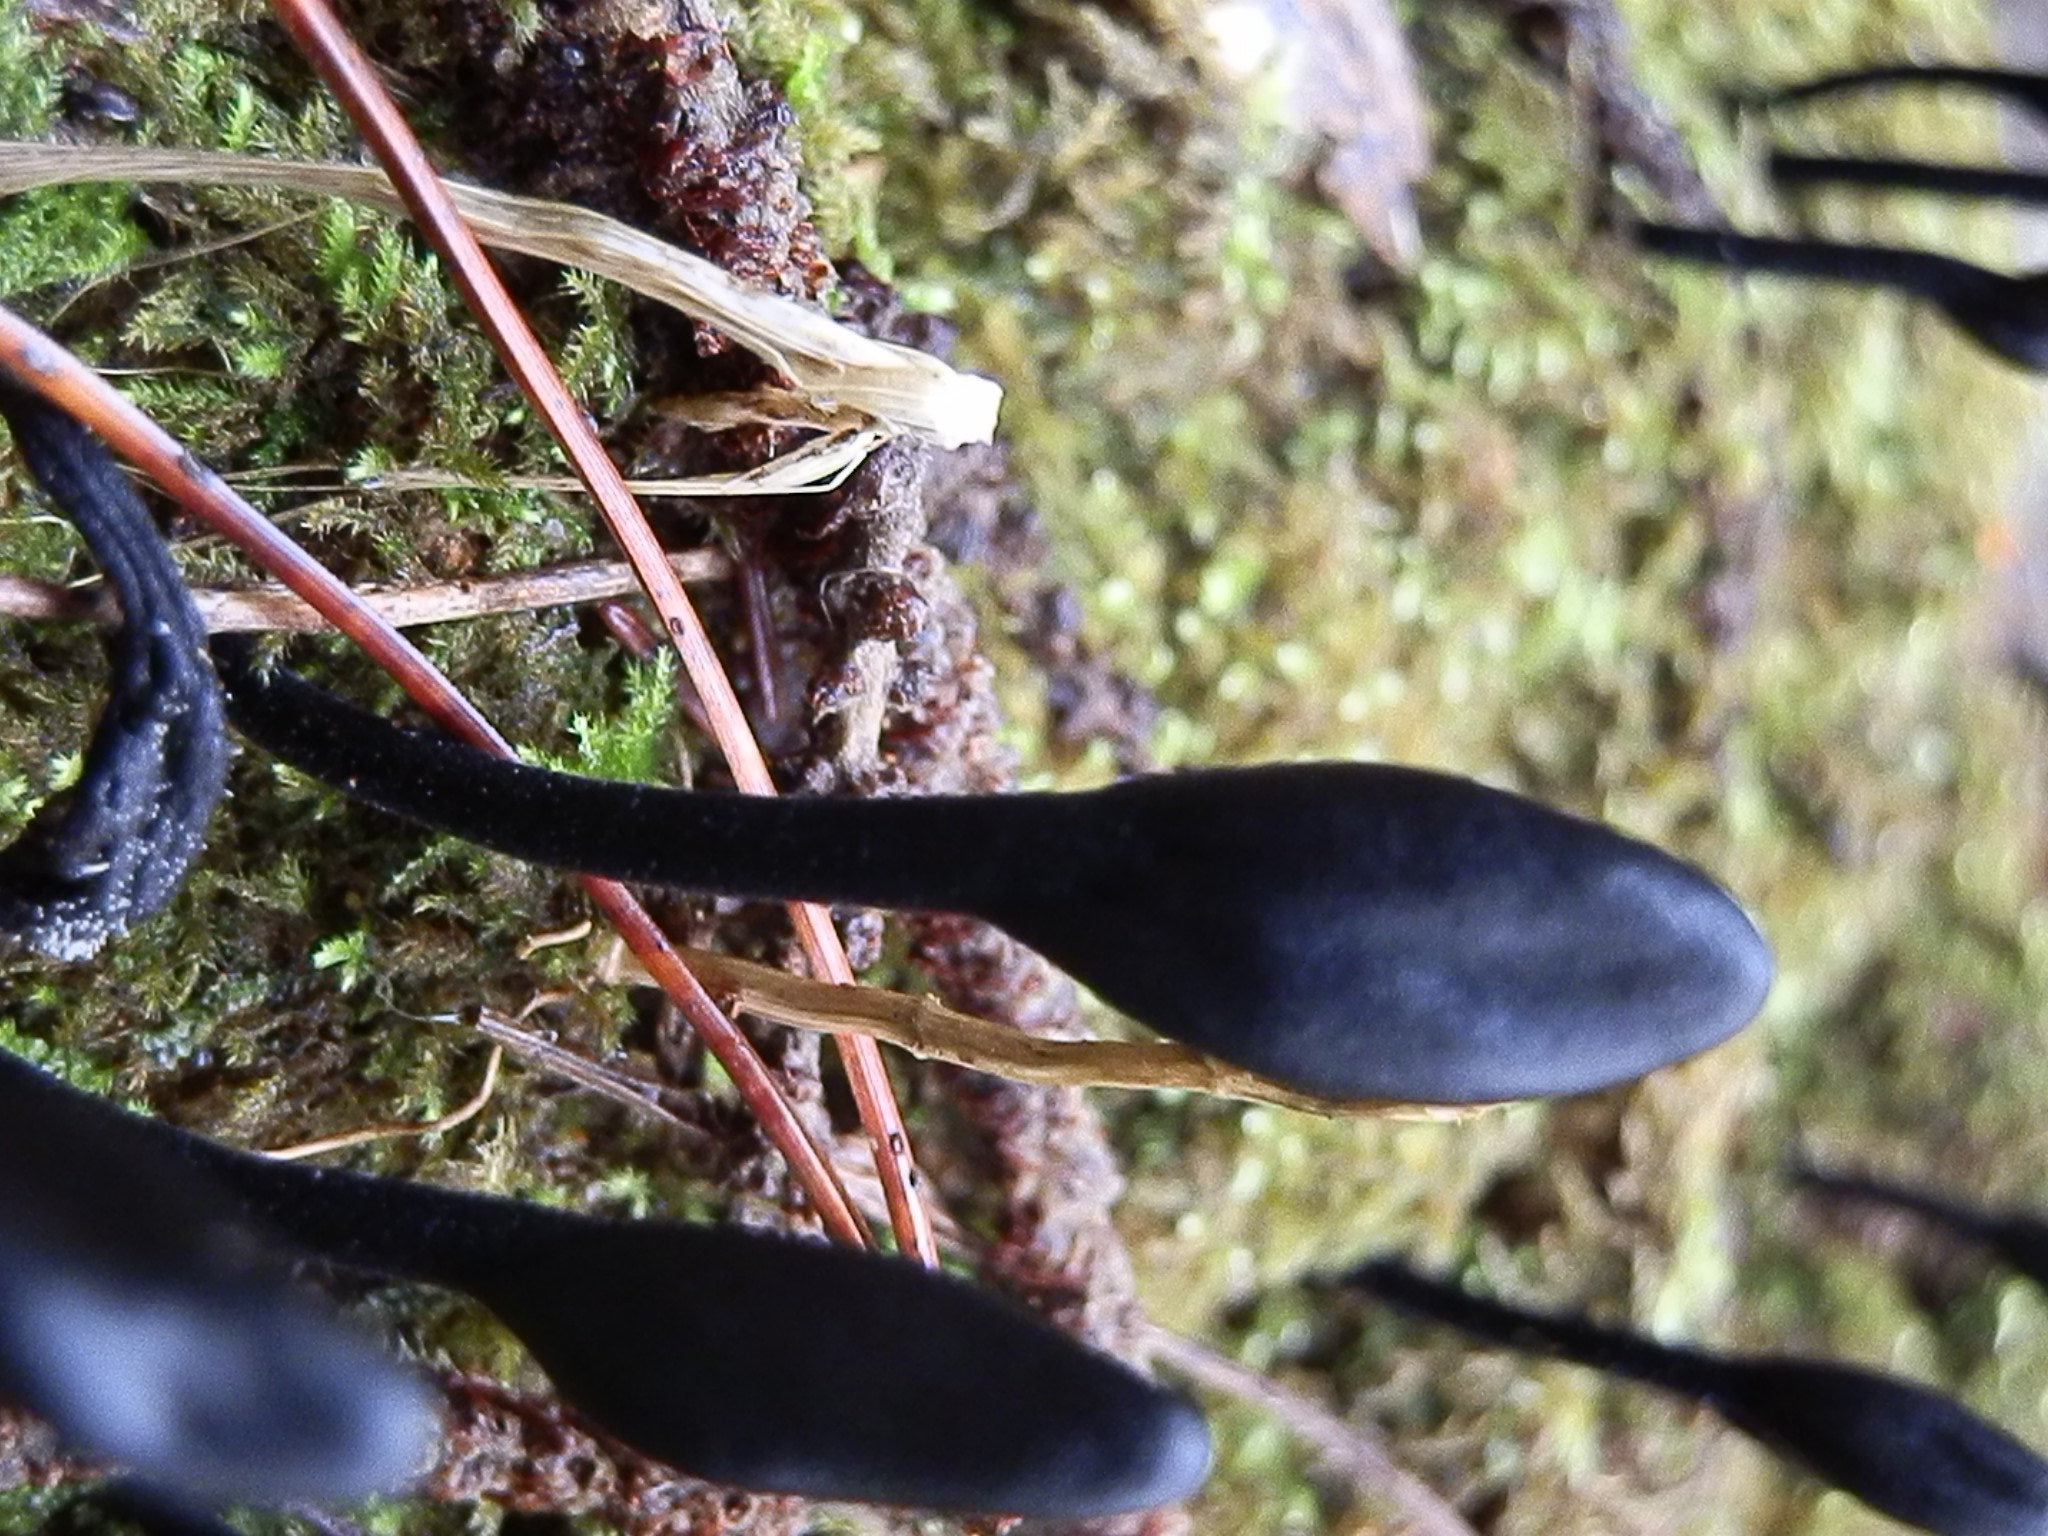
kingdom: Fungi
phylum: Ascomycota
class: Geoglossomycetes
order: Geoglossales
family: Geoglossaceae
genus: Trichoglossum
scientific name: Trichoglossum hirsutum
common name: Hairy earthtongue
